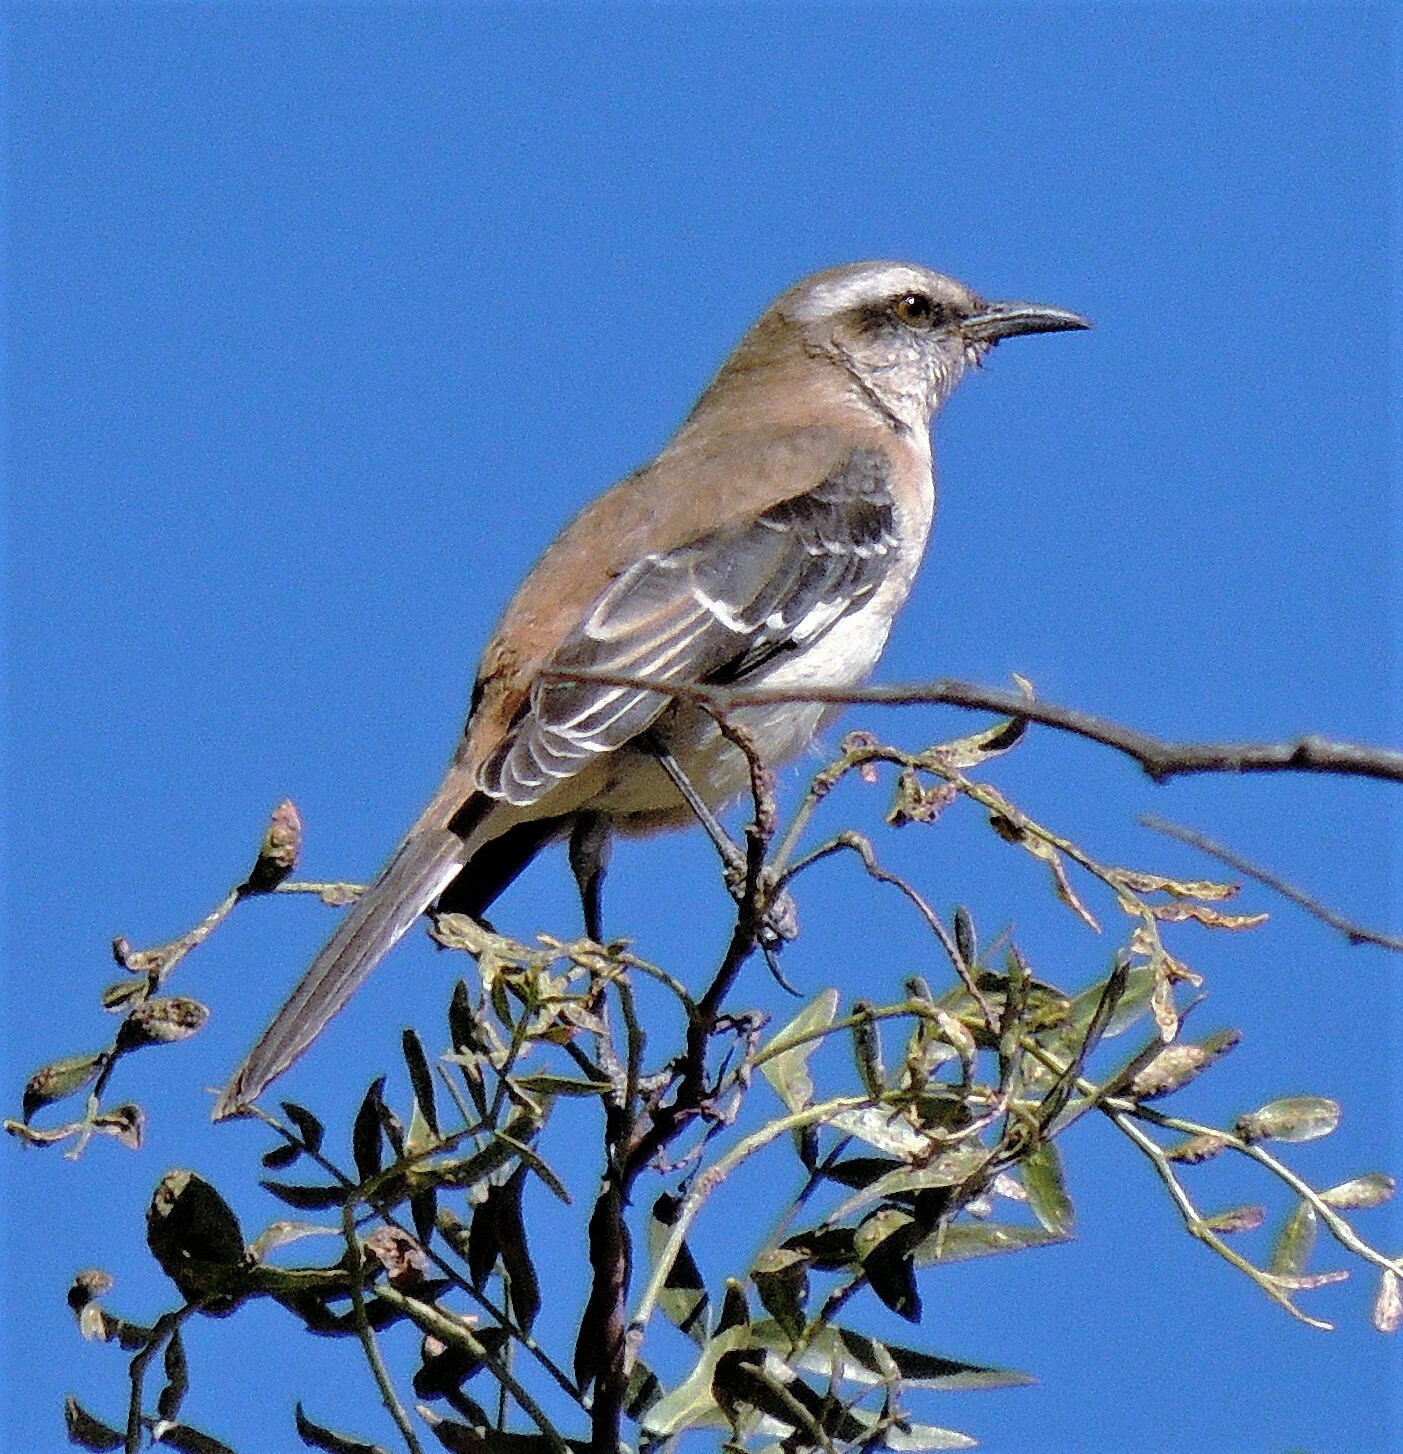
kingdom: Animalia
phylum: Chordata
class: Aves
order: Passeriformes
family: Mimidae
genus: Mimus
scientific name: Mimus dorsalis
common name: Brown-backed mockingbird
